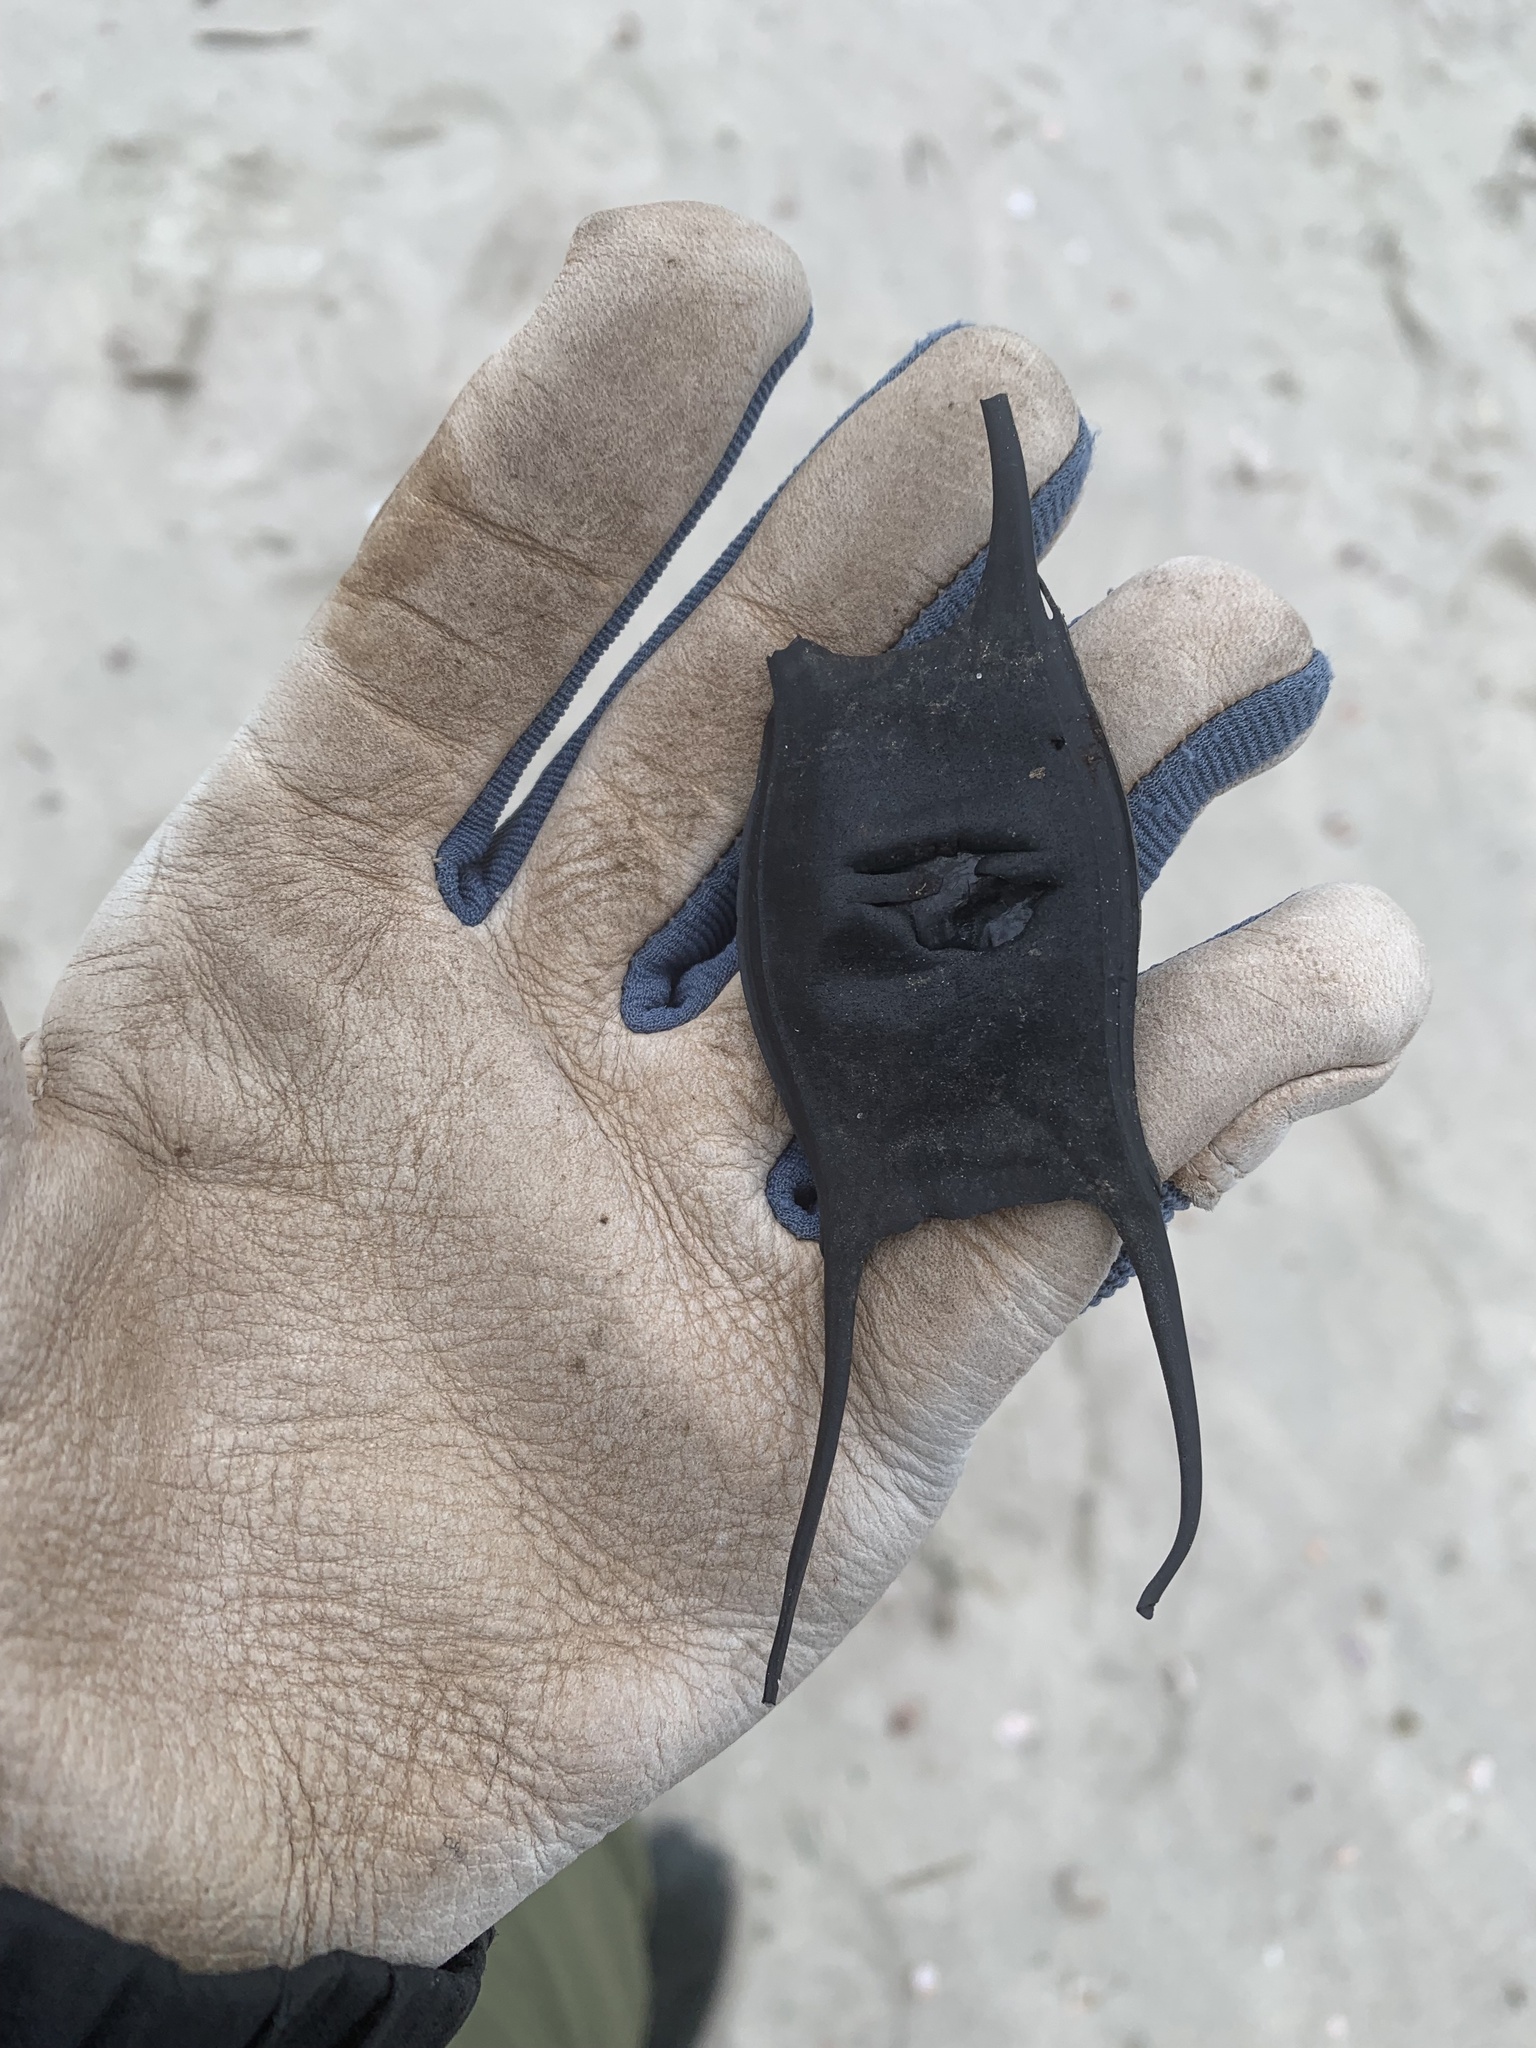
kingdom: Animalia
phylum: Chordata
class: Elasmobranchii
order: Rajiformes
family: Rajidae
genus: Leucoraja
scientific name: Leucoraja erinacea
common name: Little skate
